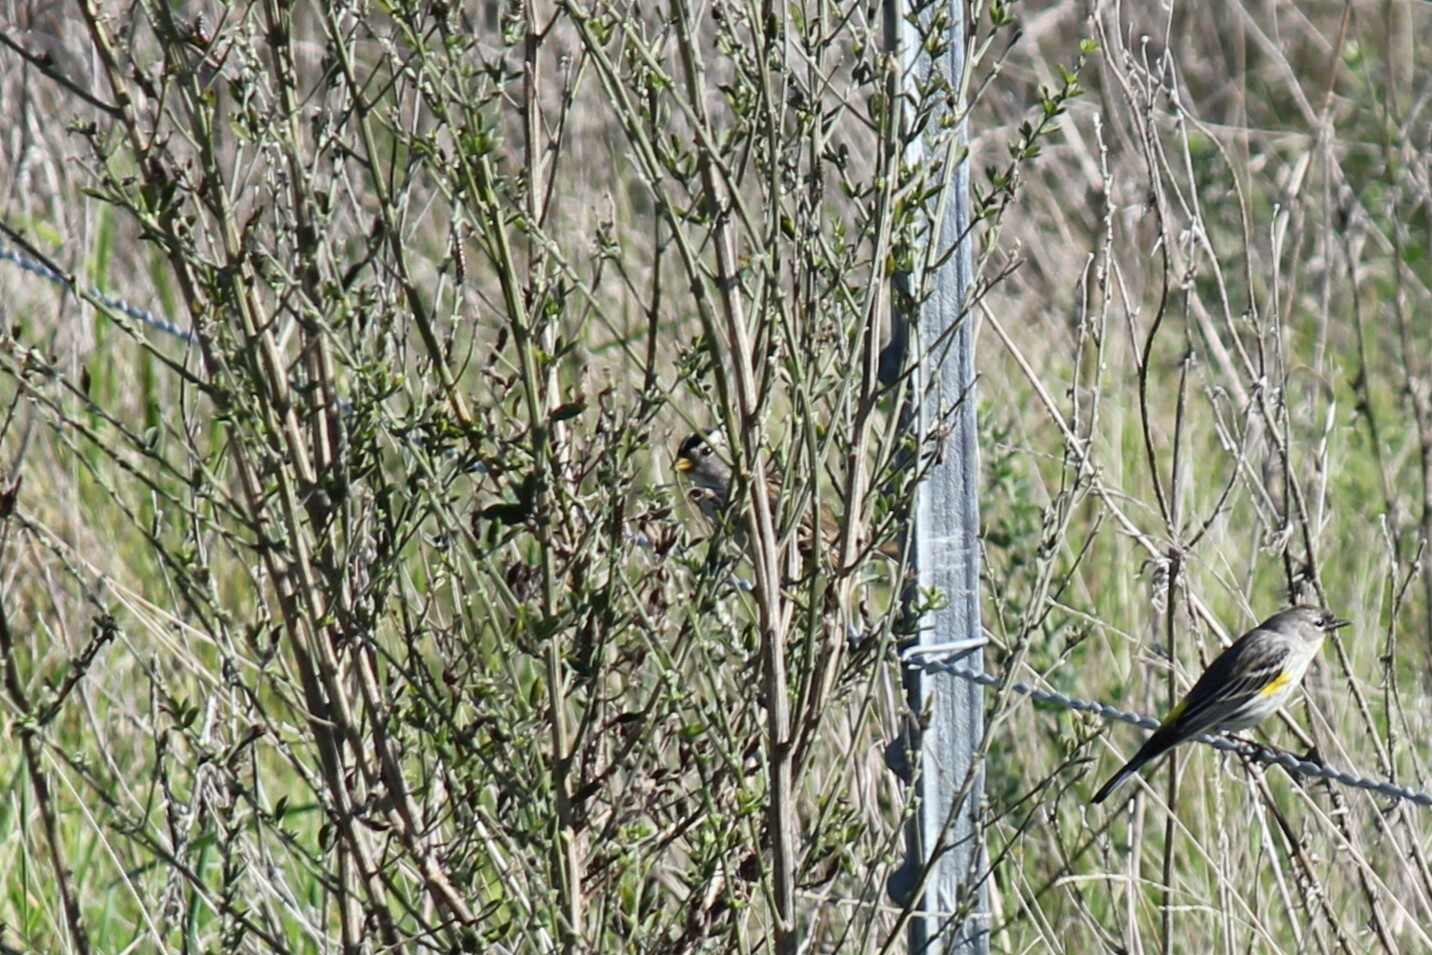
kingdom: Animalia
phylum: Chordata
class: Aves
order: Passeriformes
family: Passerellidae
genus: Zonotrichia
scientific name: Zonotrichia leucophrys
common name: White-crowned sparrow
